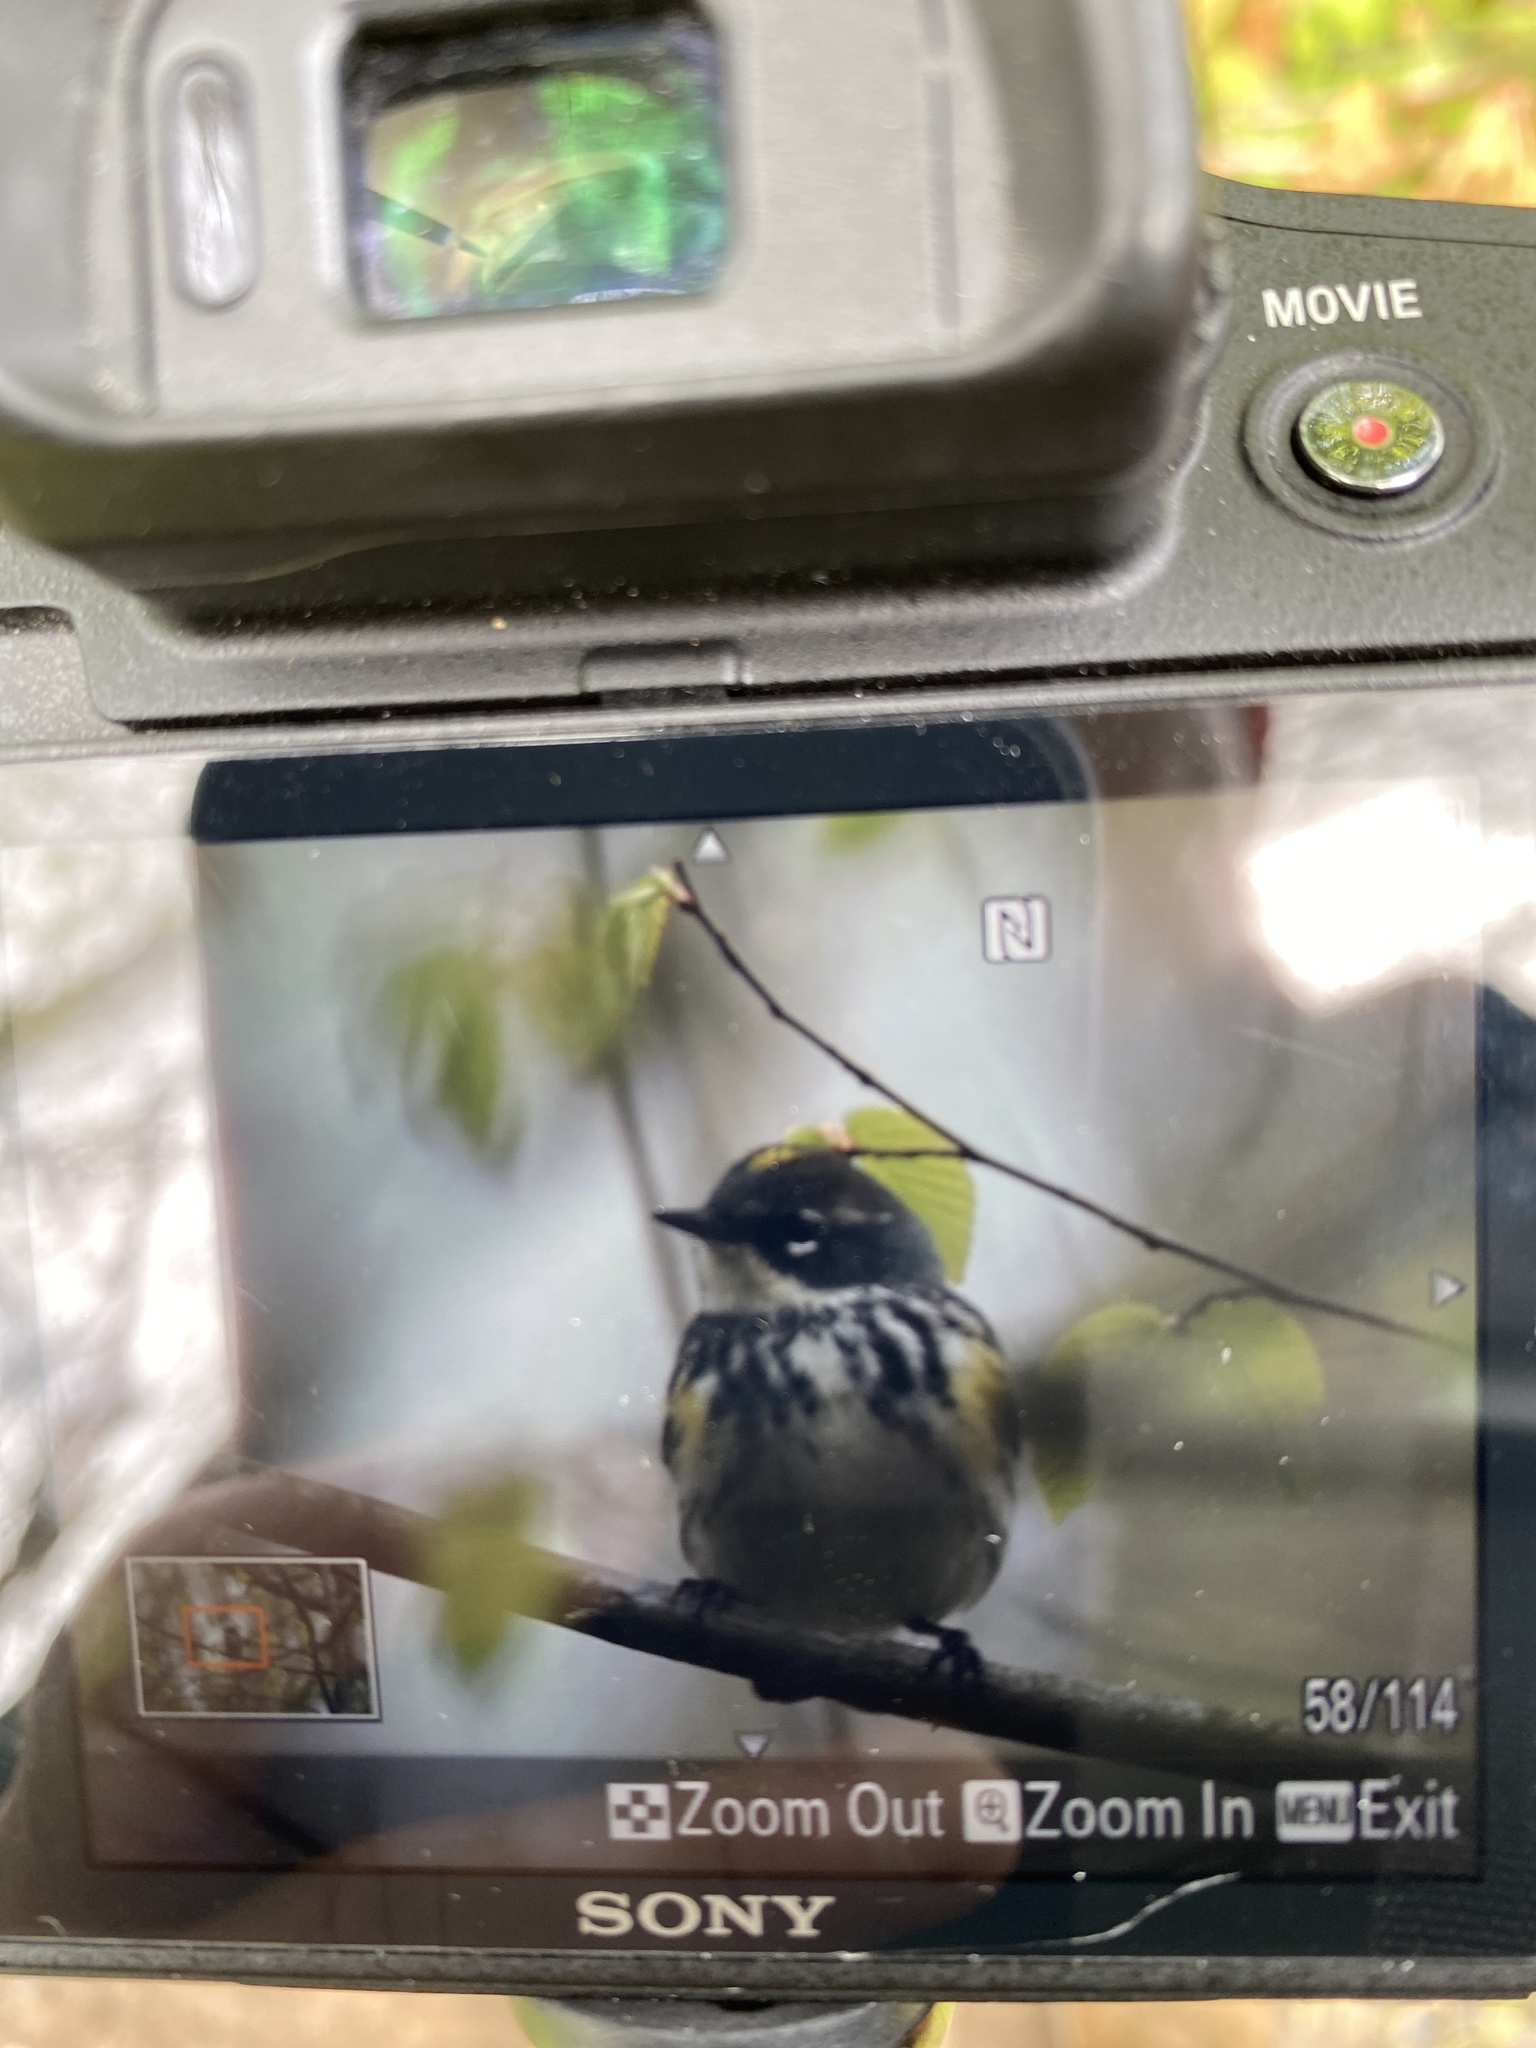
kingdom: Animalia
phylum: Chordata
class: Aves
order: Passeriformes
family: Parulidae
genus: Setophaga
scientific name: Setophaga coronata
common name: Myrtle warbler
